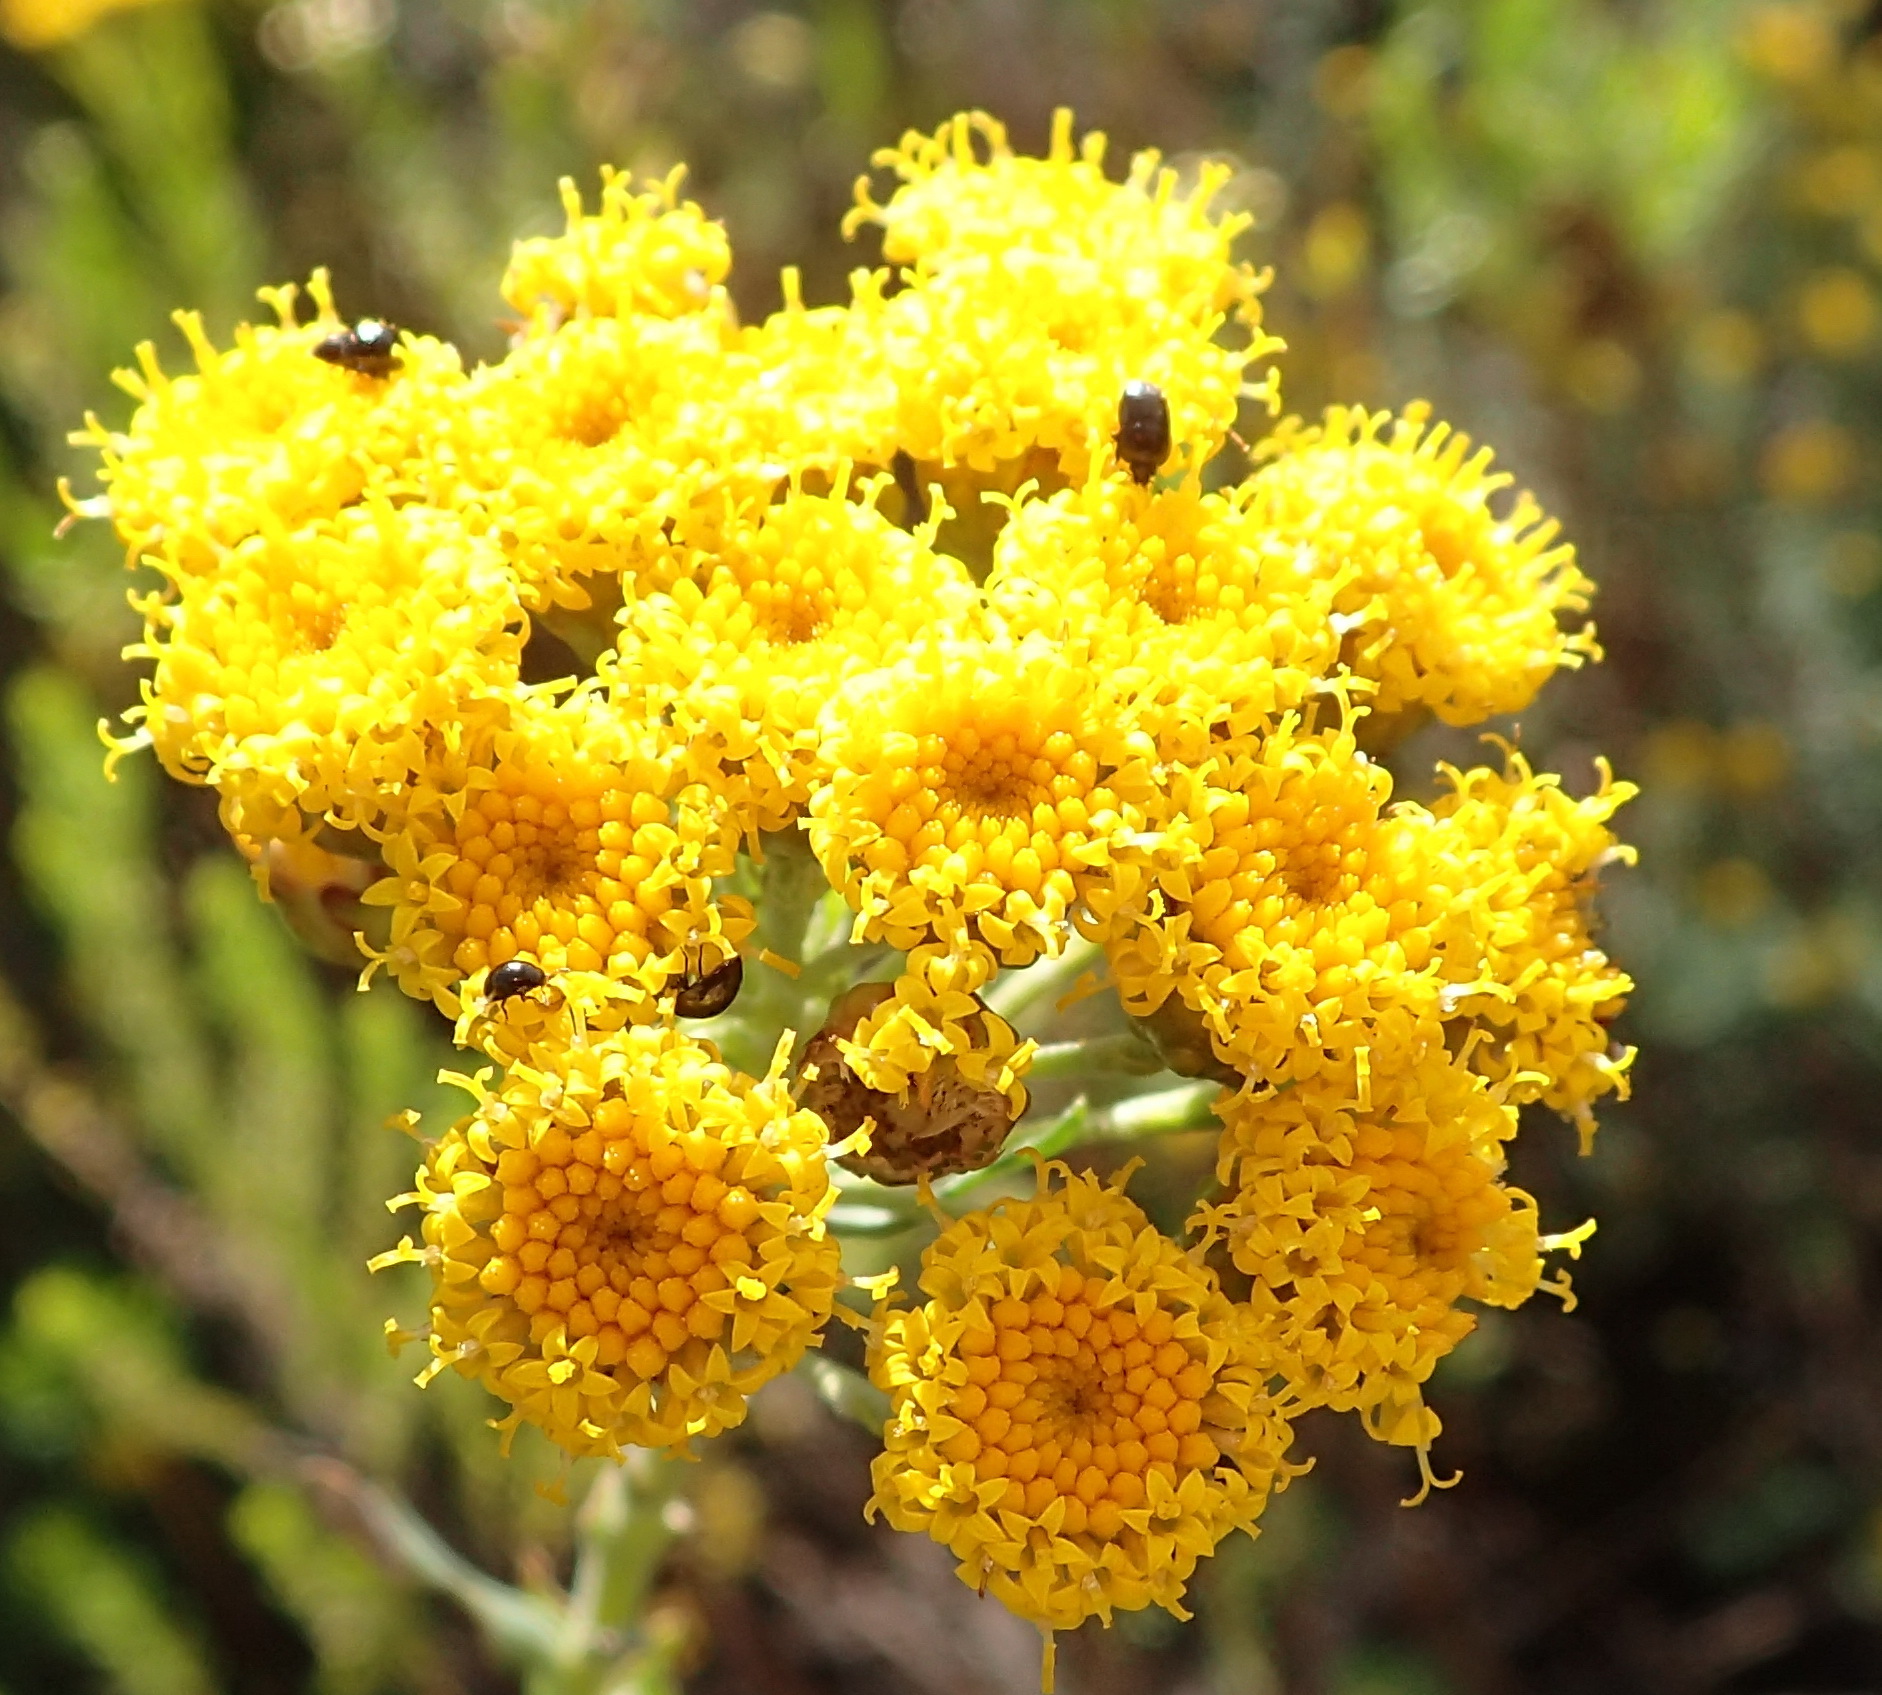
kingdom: Plantae
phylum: Tracheophyta
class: Magnoliopsida
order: Asterales
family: Asteraceae
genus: Athanasia
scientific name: Athanasia trifurcata
